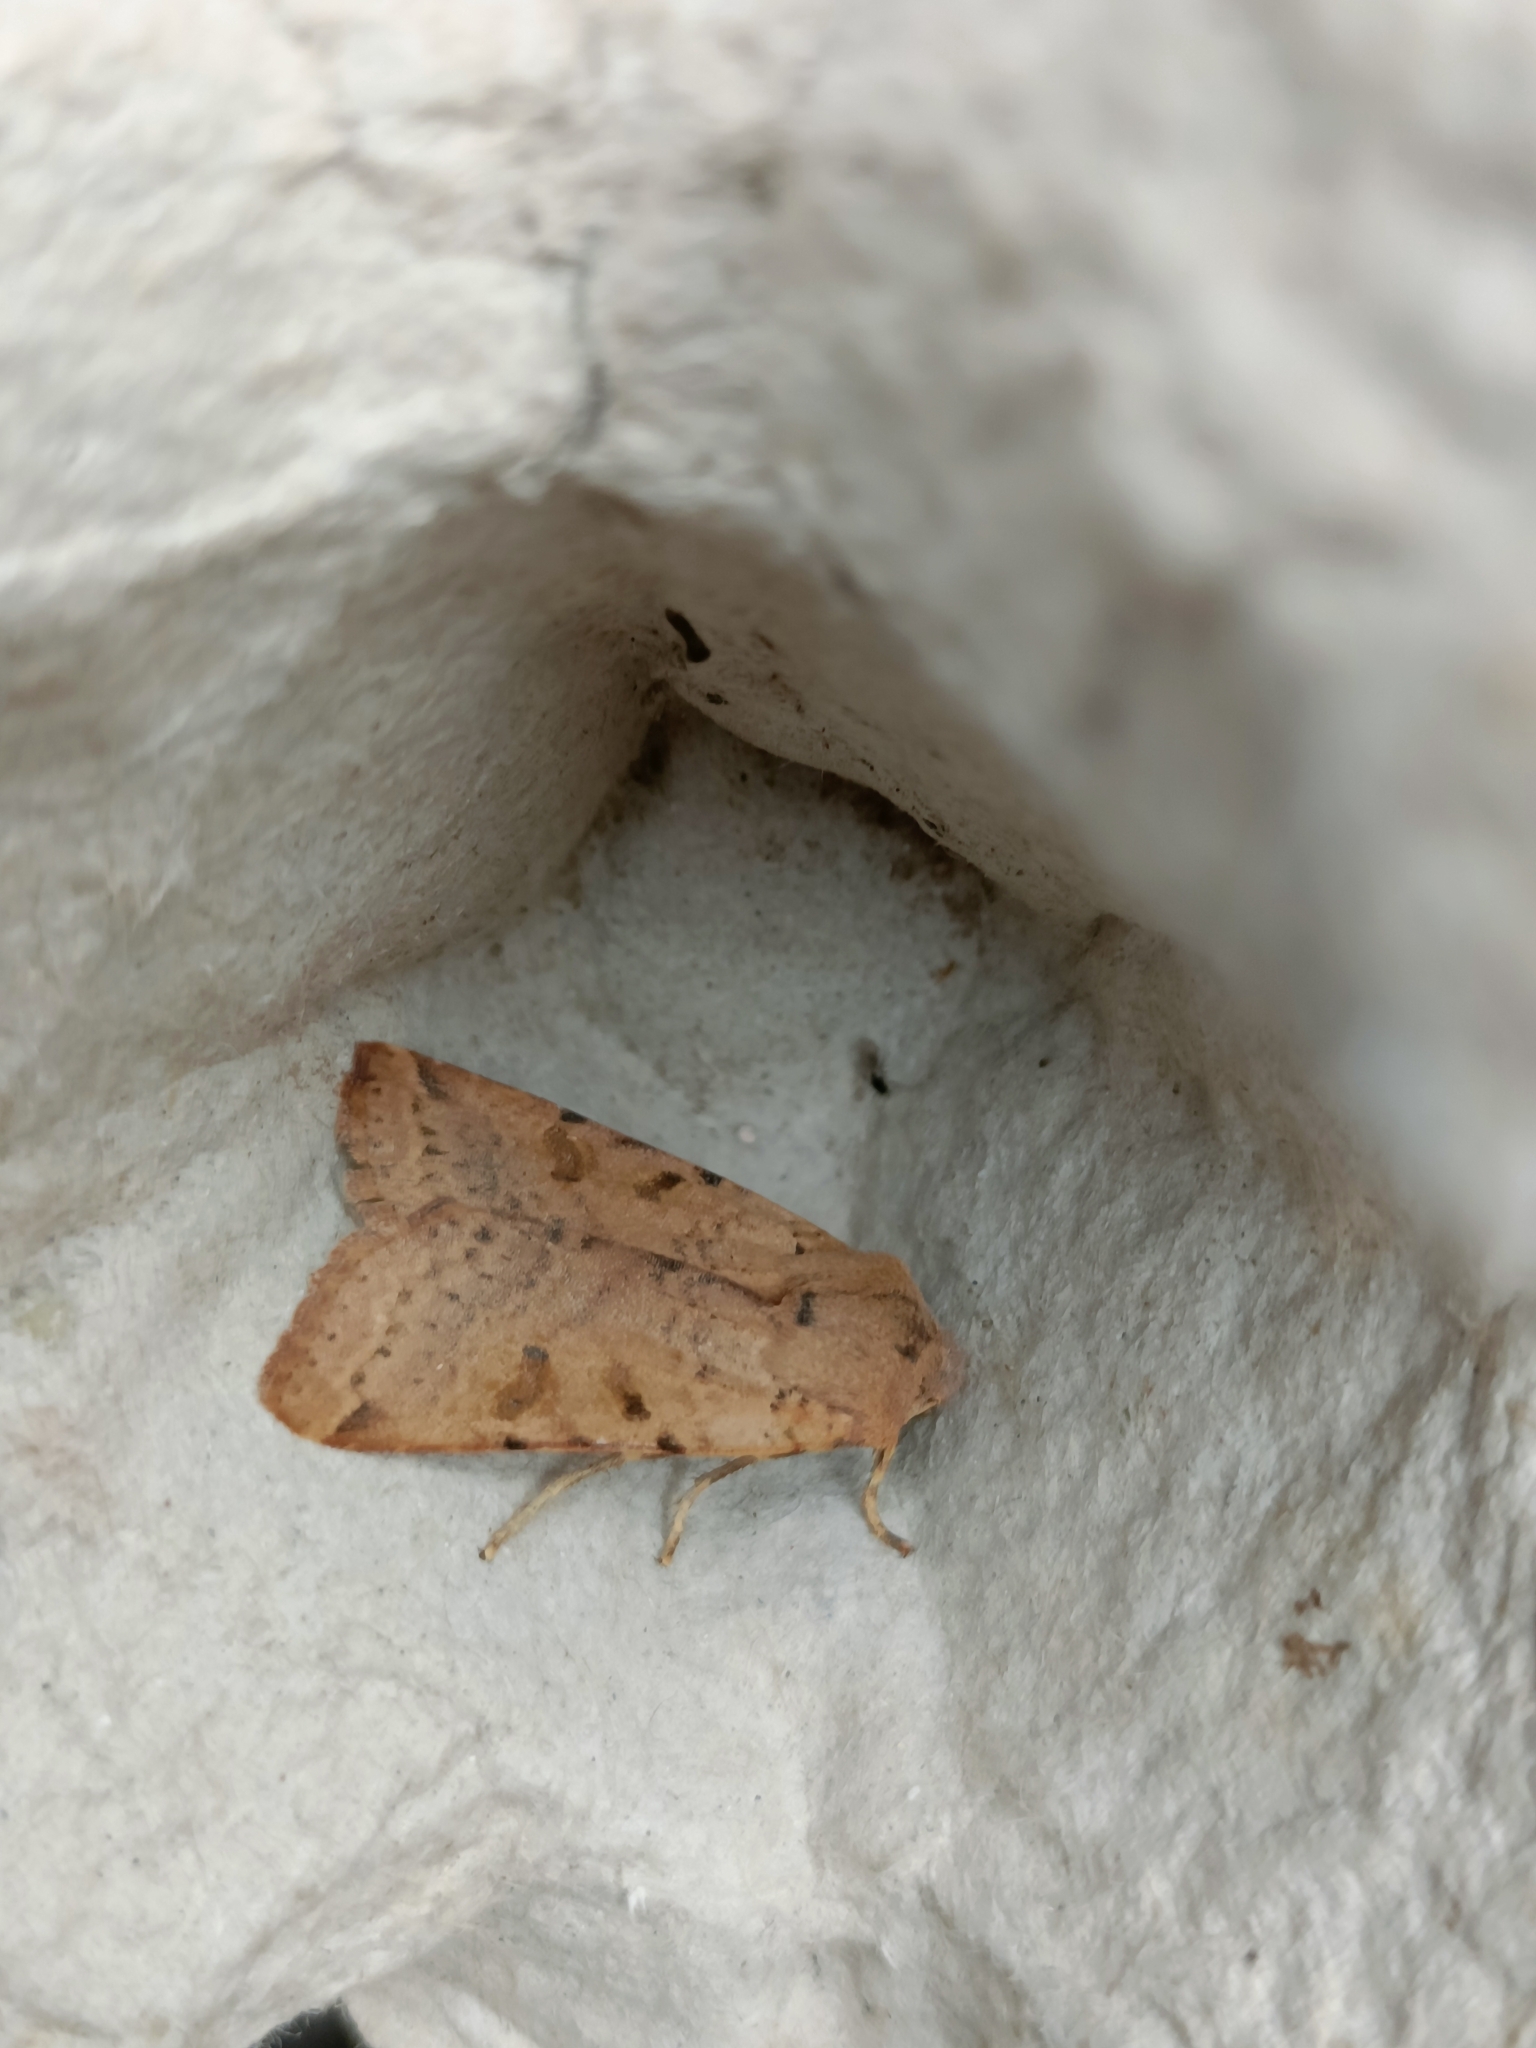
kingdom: Animalia
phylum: Arthropoda
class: Insecta
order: Lepidoptera
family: Noctuidae
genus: Agrochola
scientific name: Agrochola lychnidis
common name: Beaded chestnut
